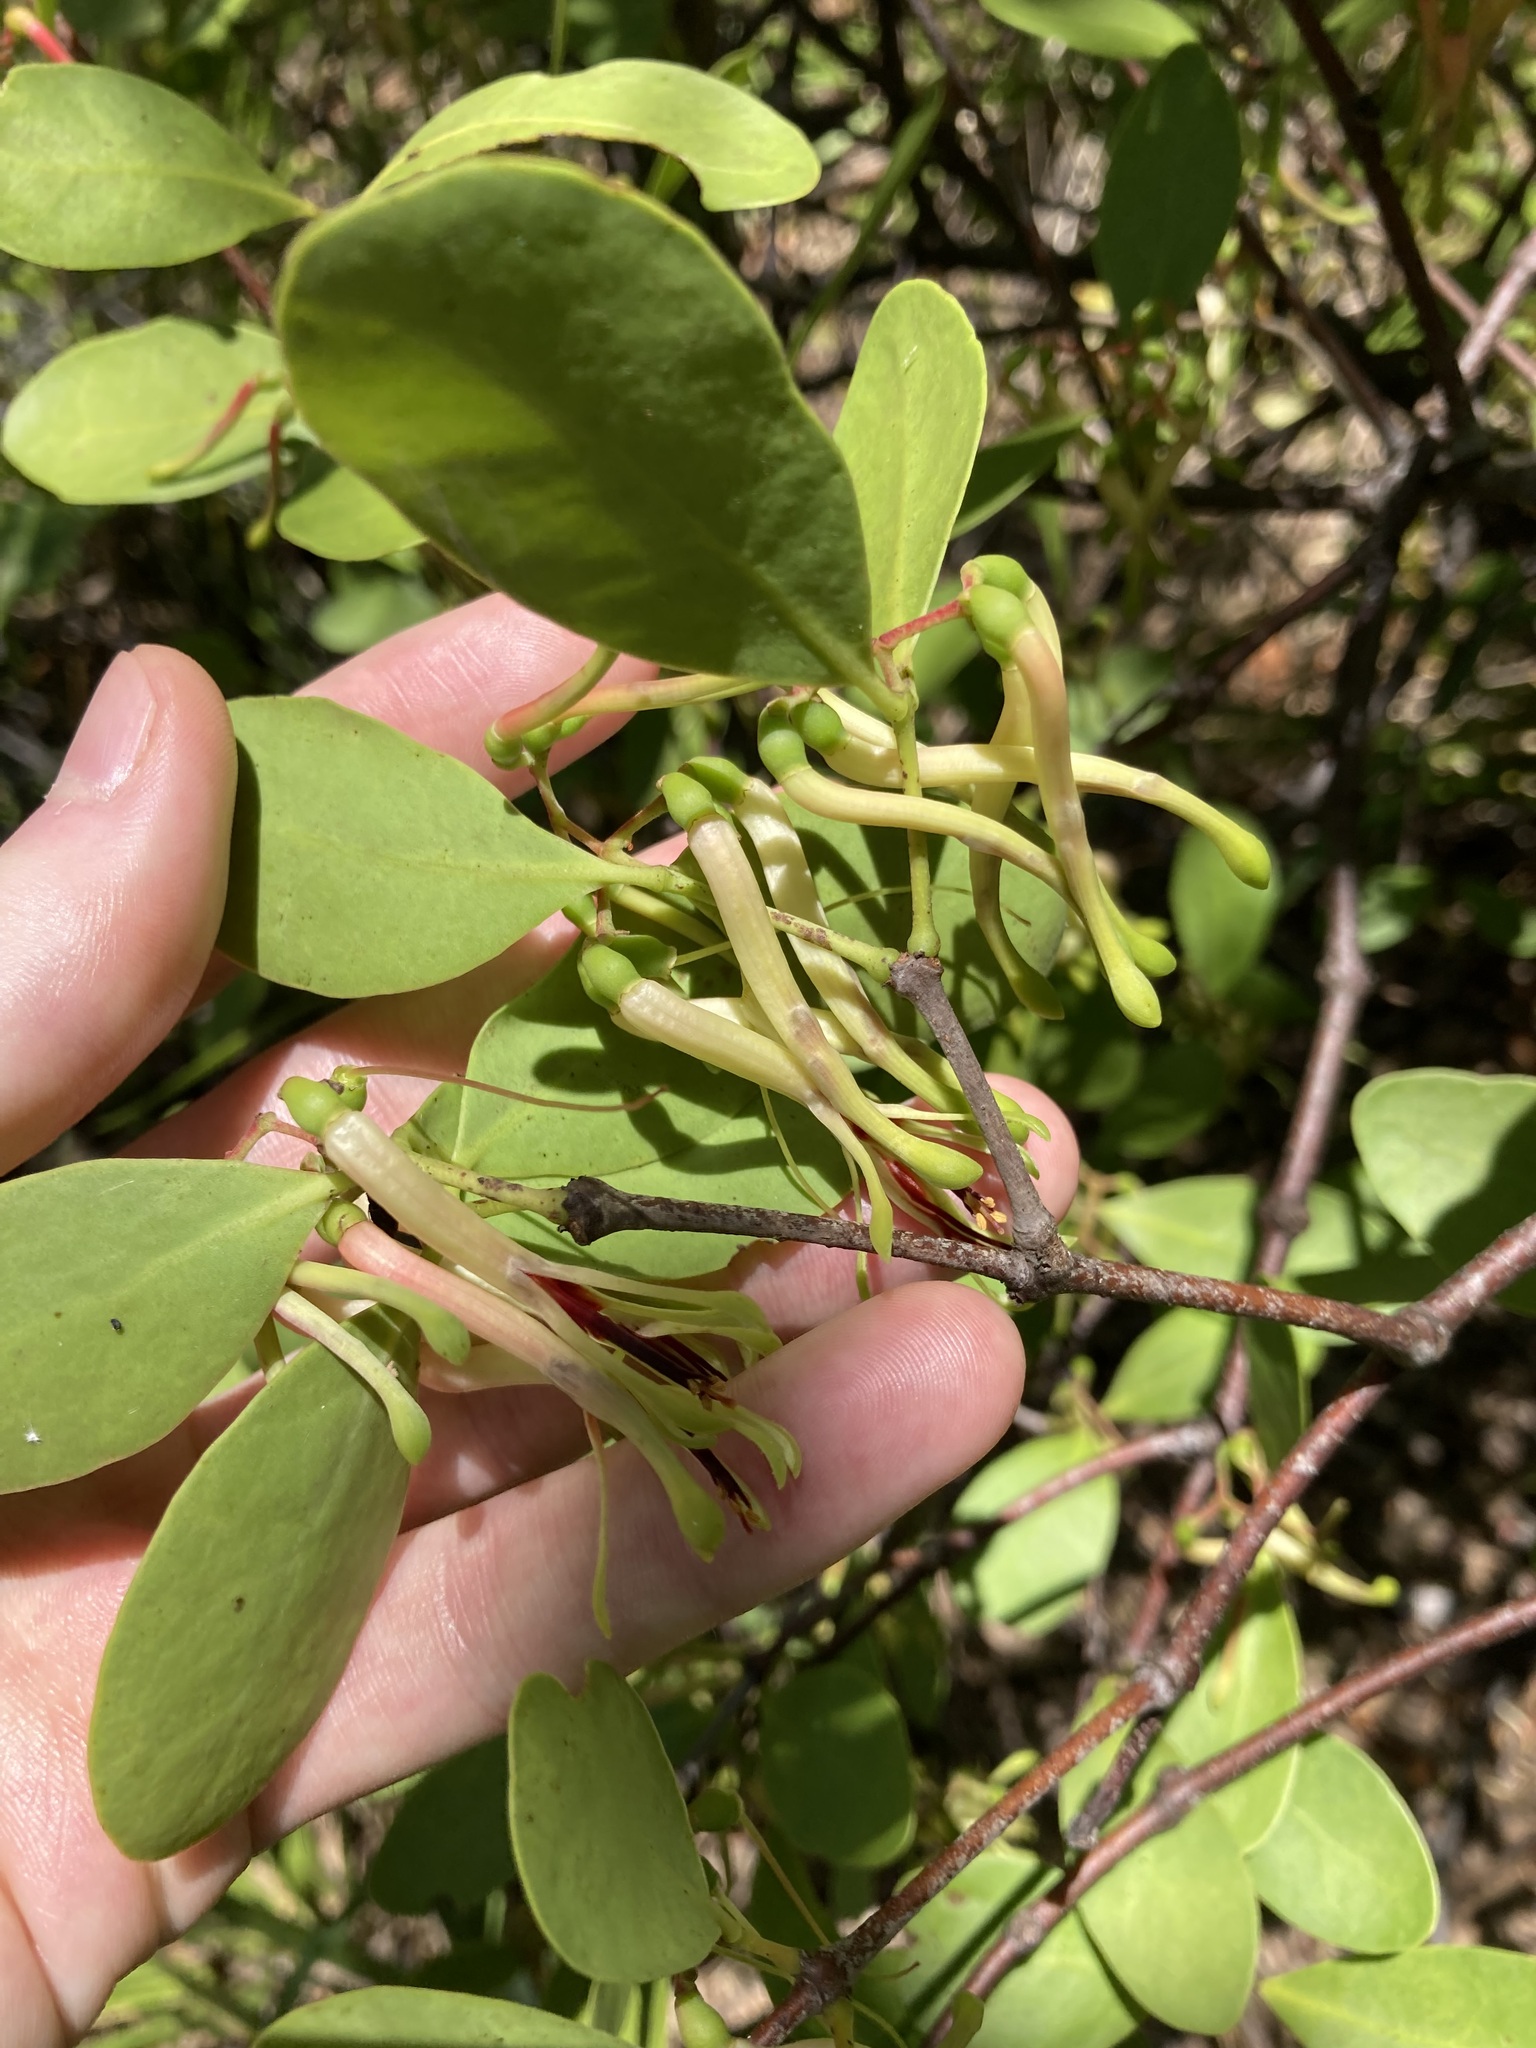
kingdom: Plantae
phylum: Tracheophyta
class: Magnoliopsida
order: Santalales
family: Loranthaceae
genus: Muellerina
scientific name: Muellerina celastroides
